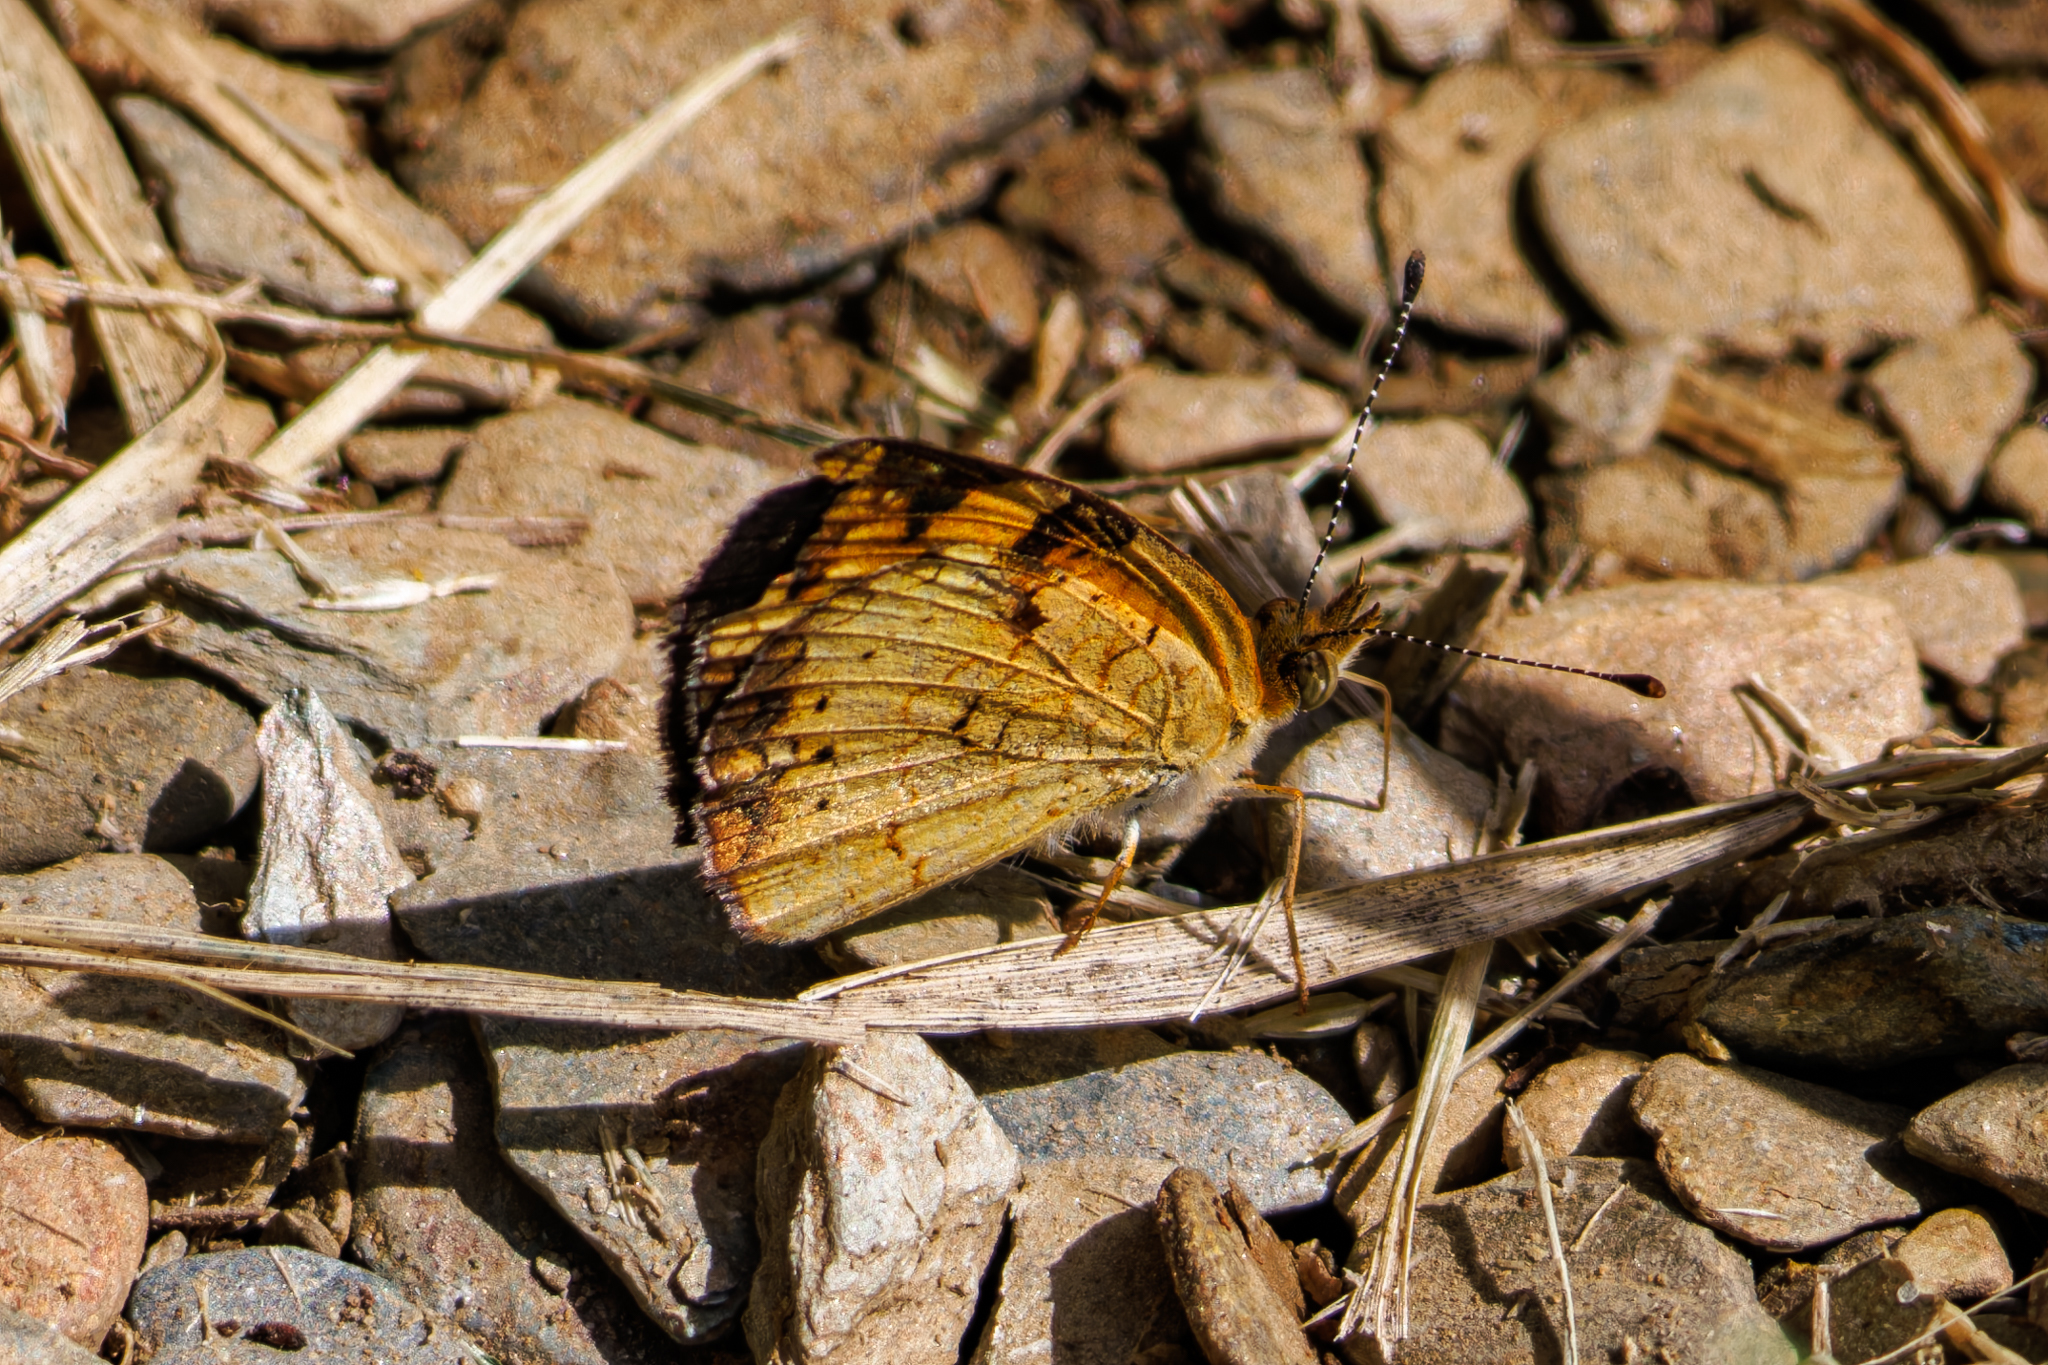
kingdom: Animalia
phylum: Arthropoda
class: Insecta
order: Lepidoptera
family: Nymphalidae
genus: Phyciodes
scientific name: Phyciodes tharos
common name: Pearl crescent
